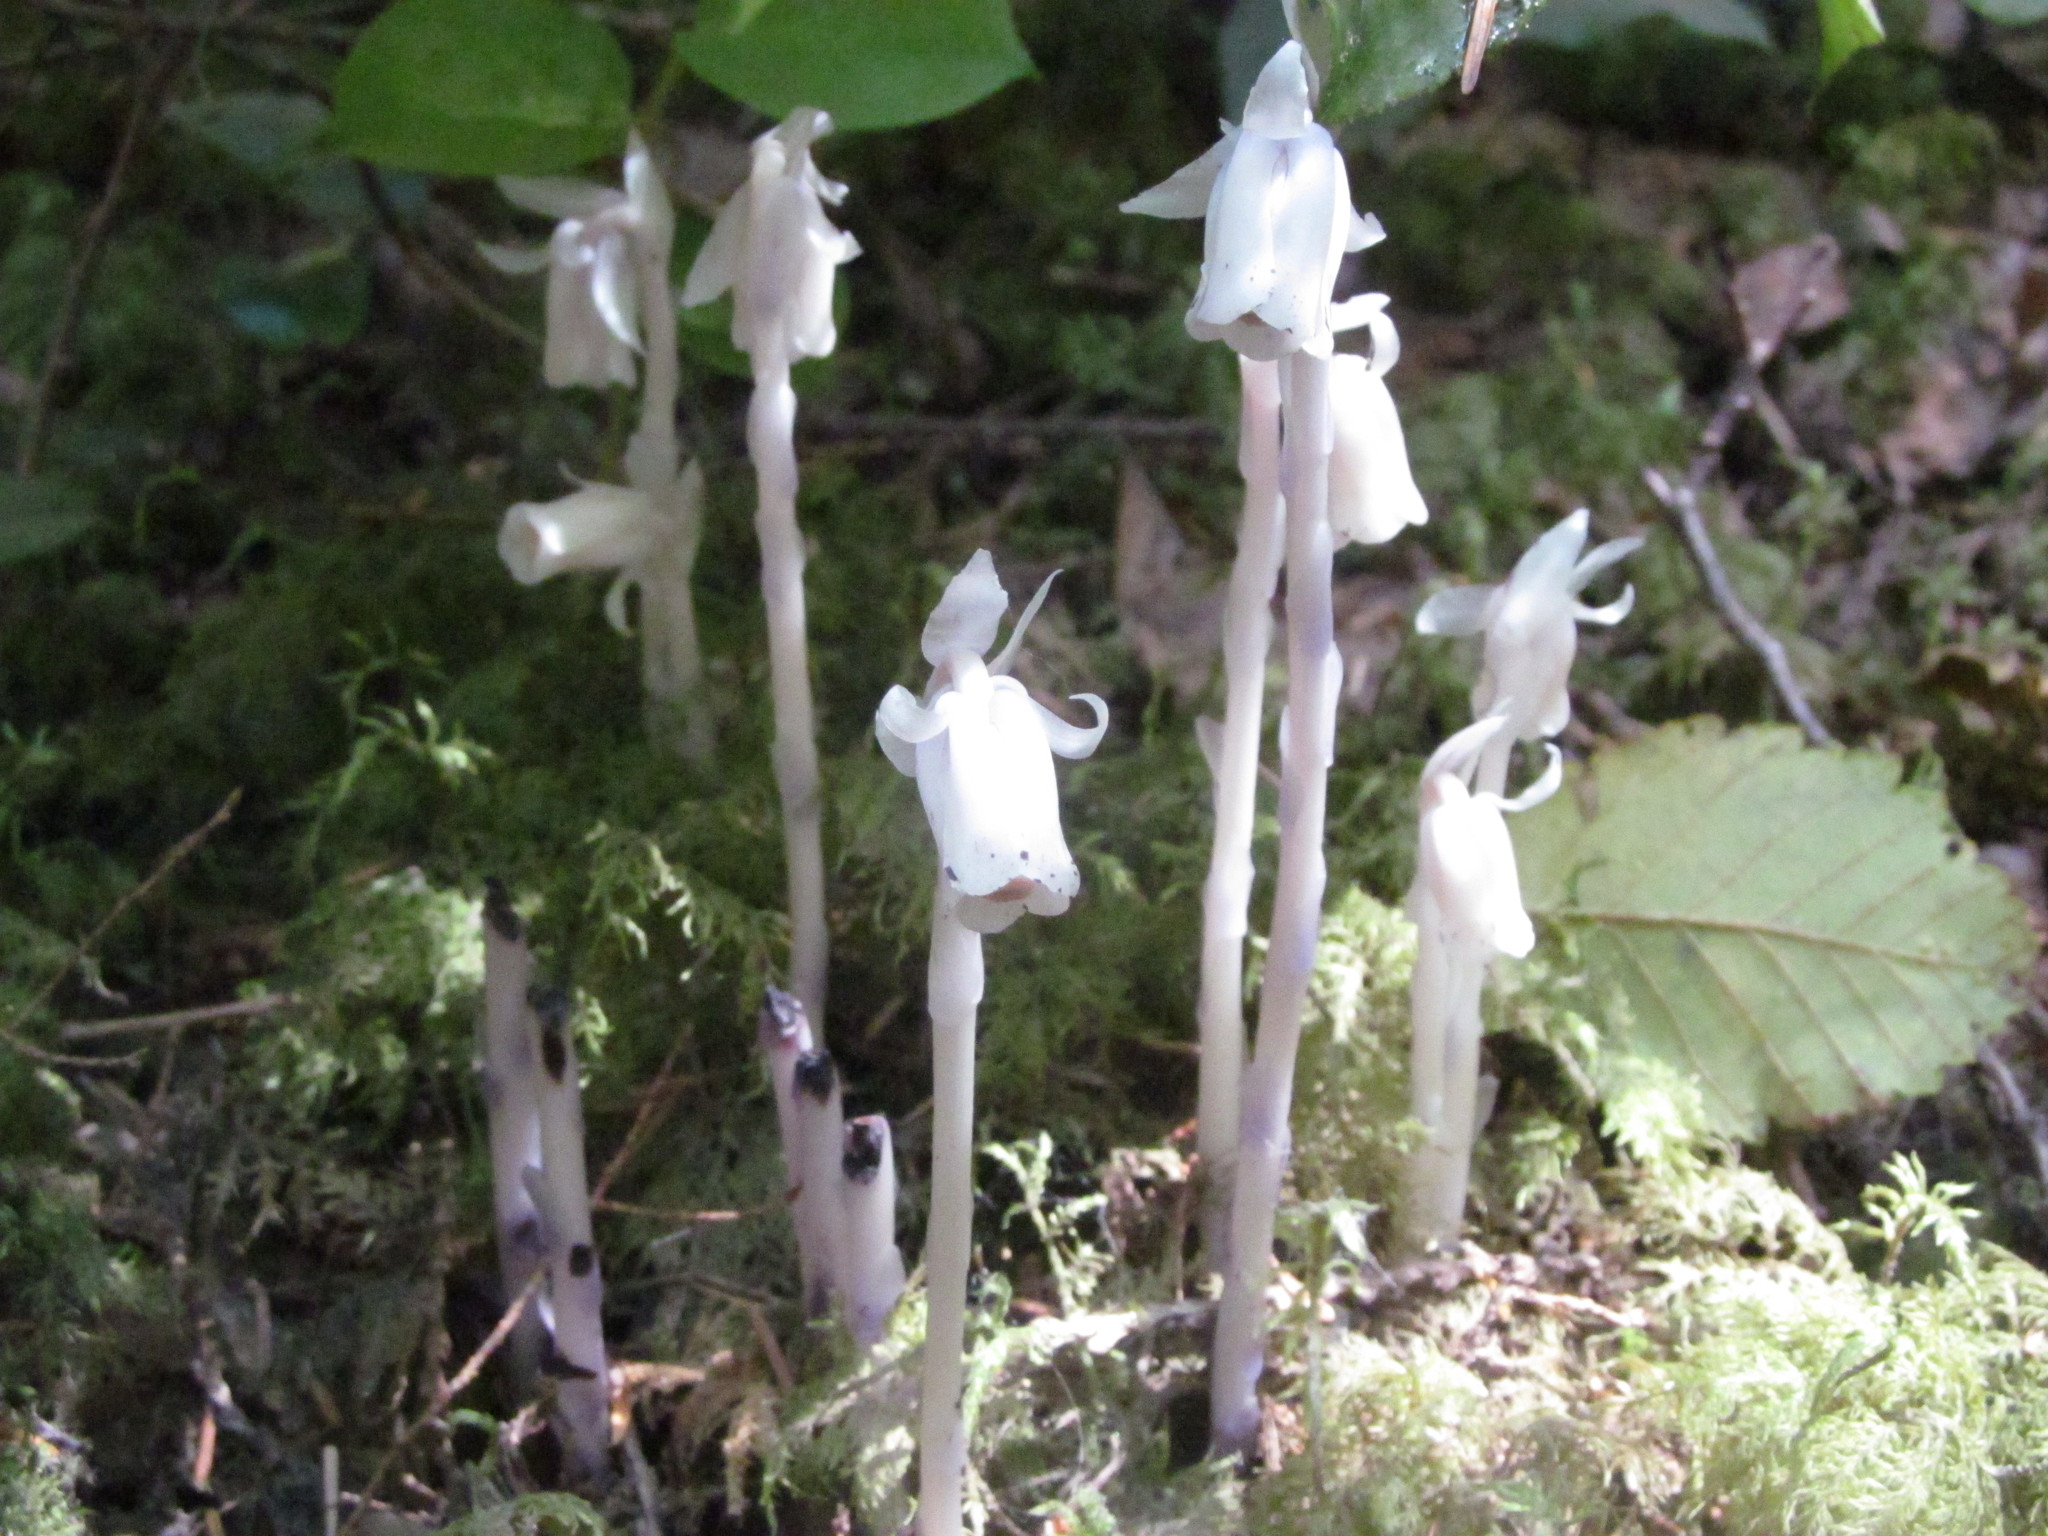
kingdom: Plantae
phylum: Tracheophyta
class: Magnoliopsida
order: Ericales
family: Ericaceae
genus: Monotropa
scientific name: Monotropa uniflora
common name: Convulsion root
